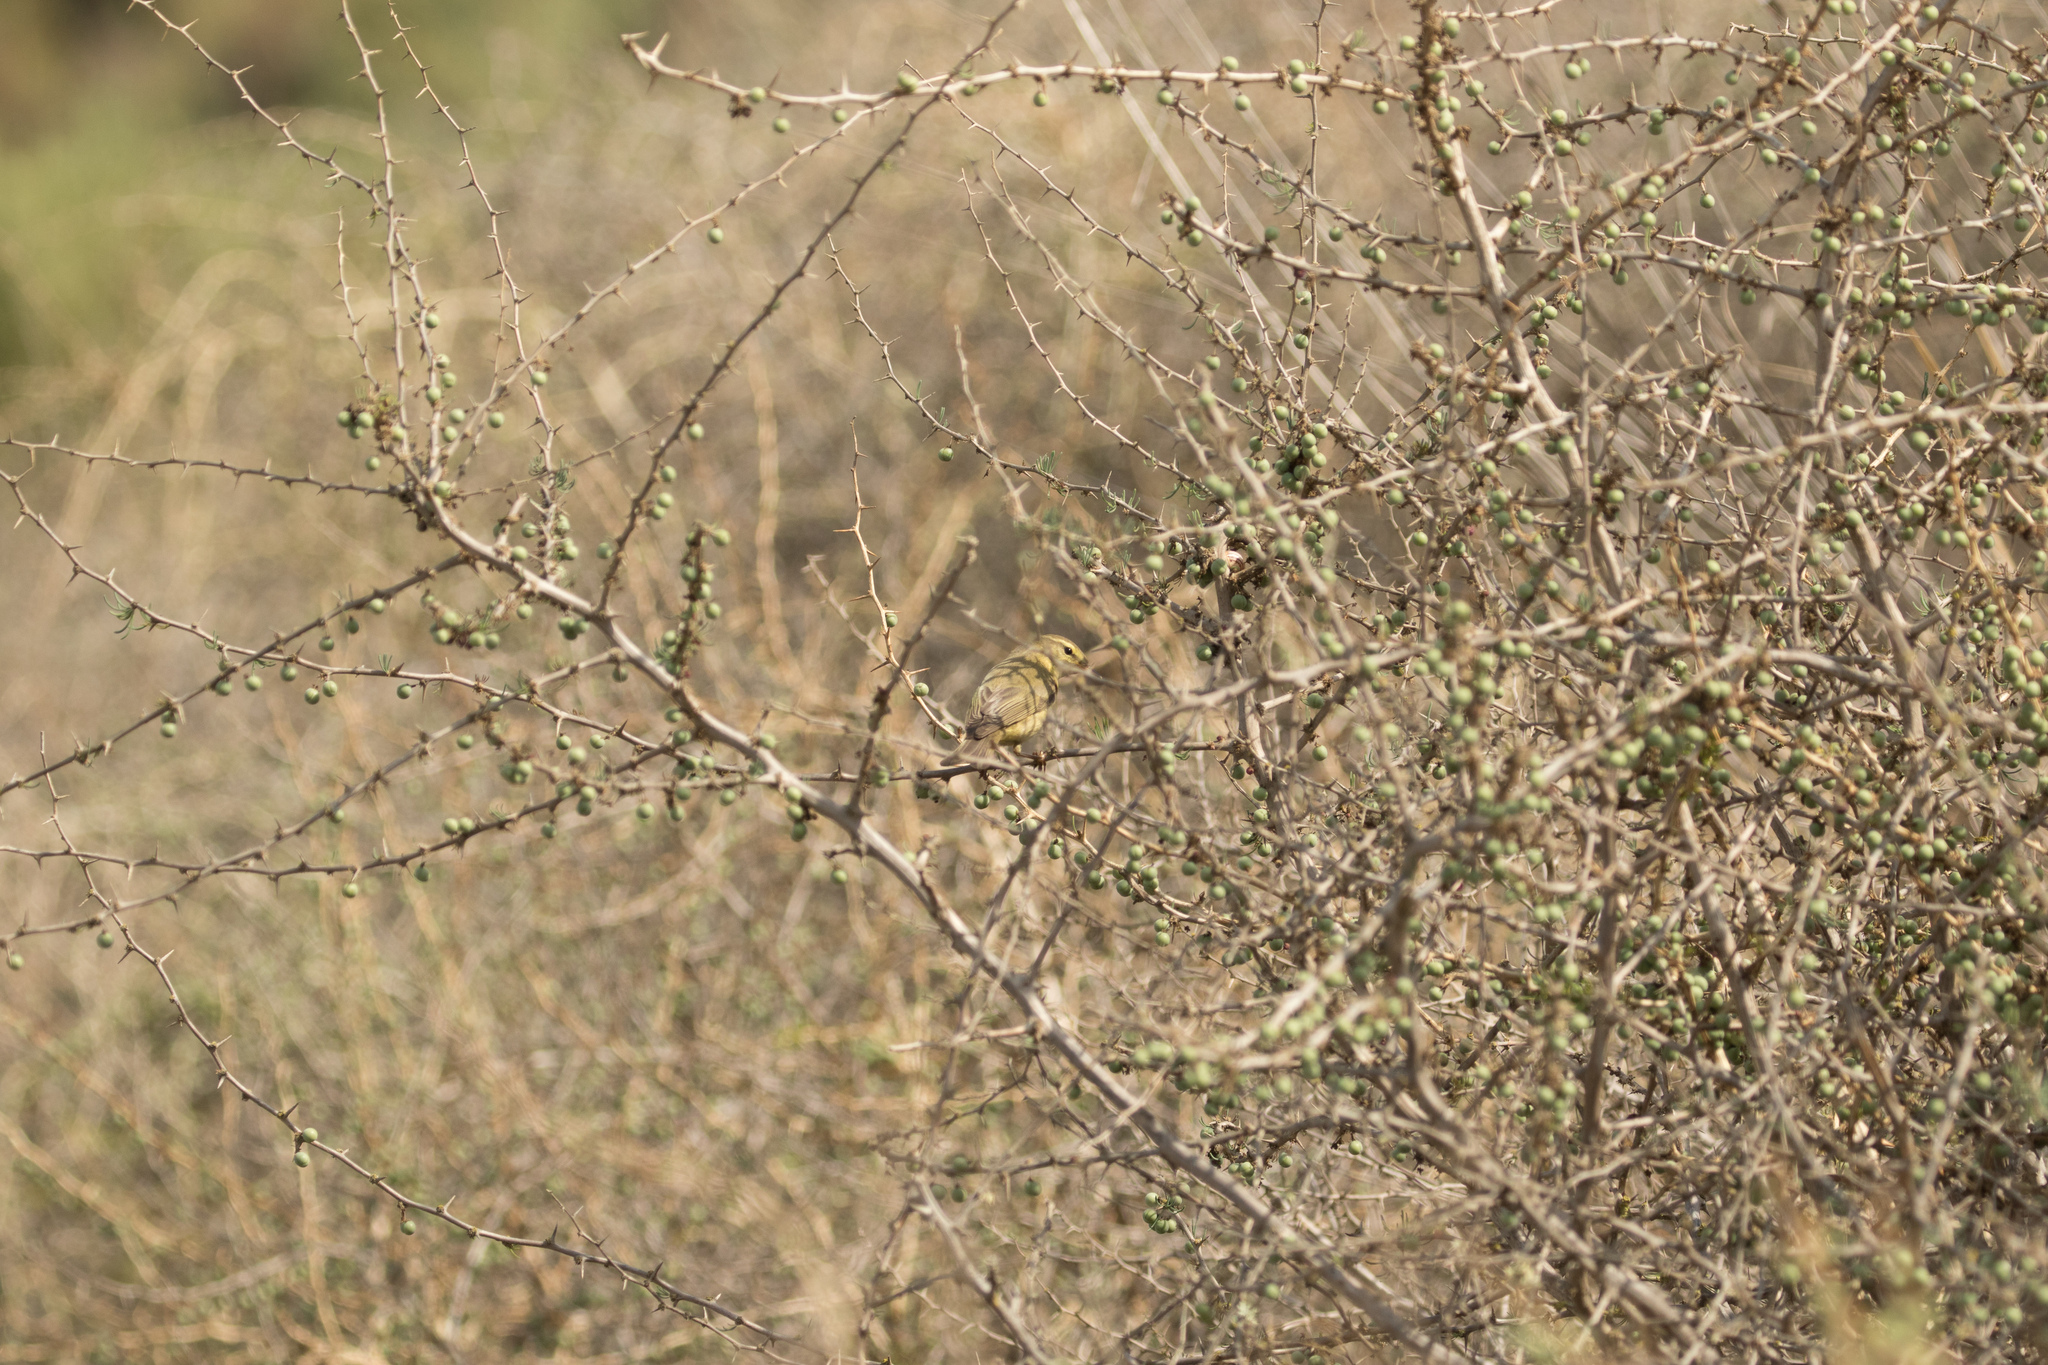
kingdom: Animalia
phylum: Chordata
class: Aves
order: Passeriformes
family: Phylloscopidae
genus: Phylloscopus
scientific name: Phylloscopus trochilus
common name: Willow warbler
